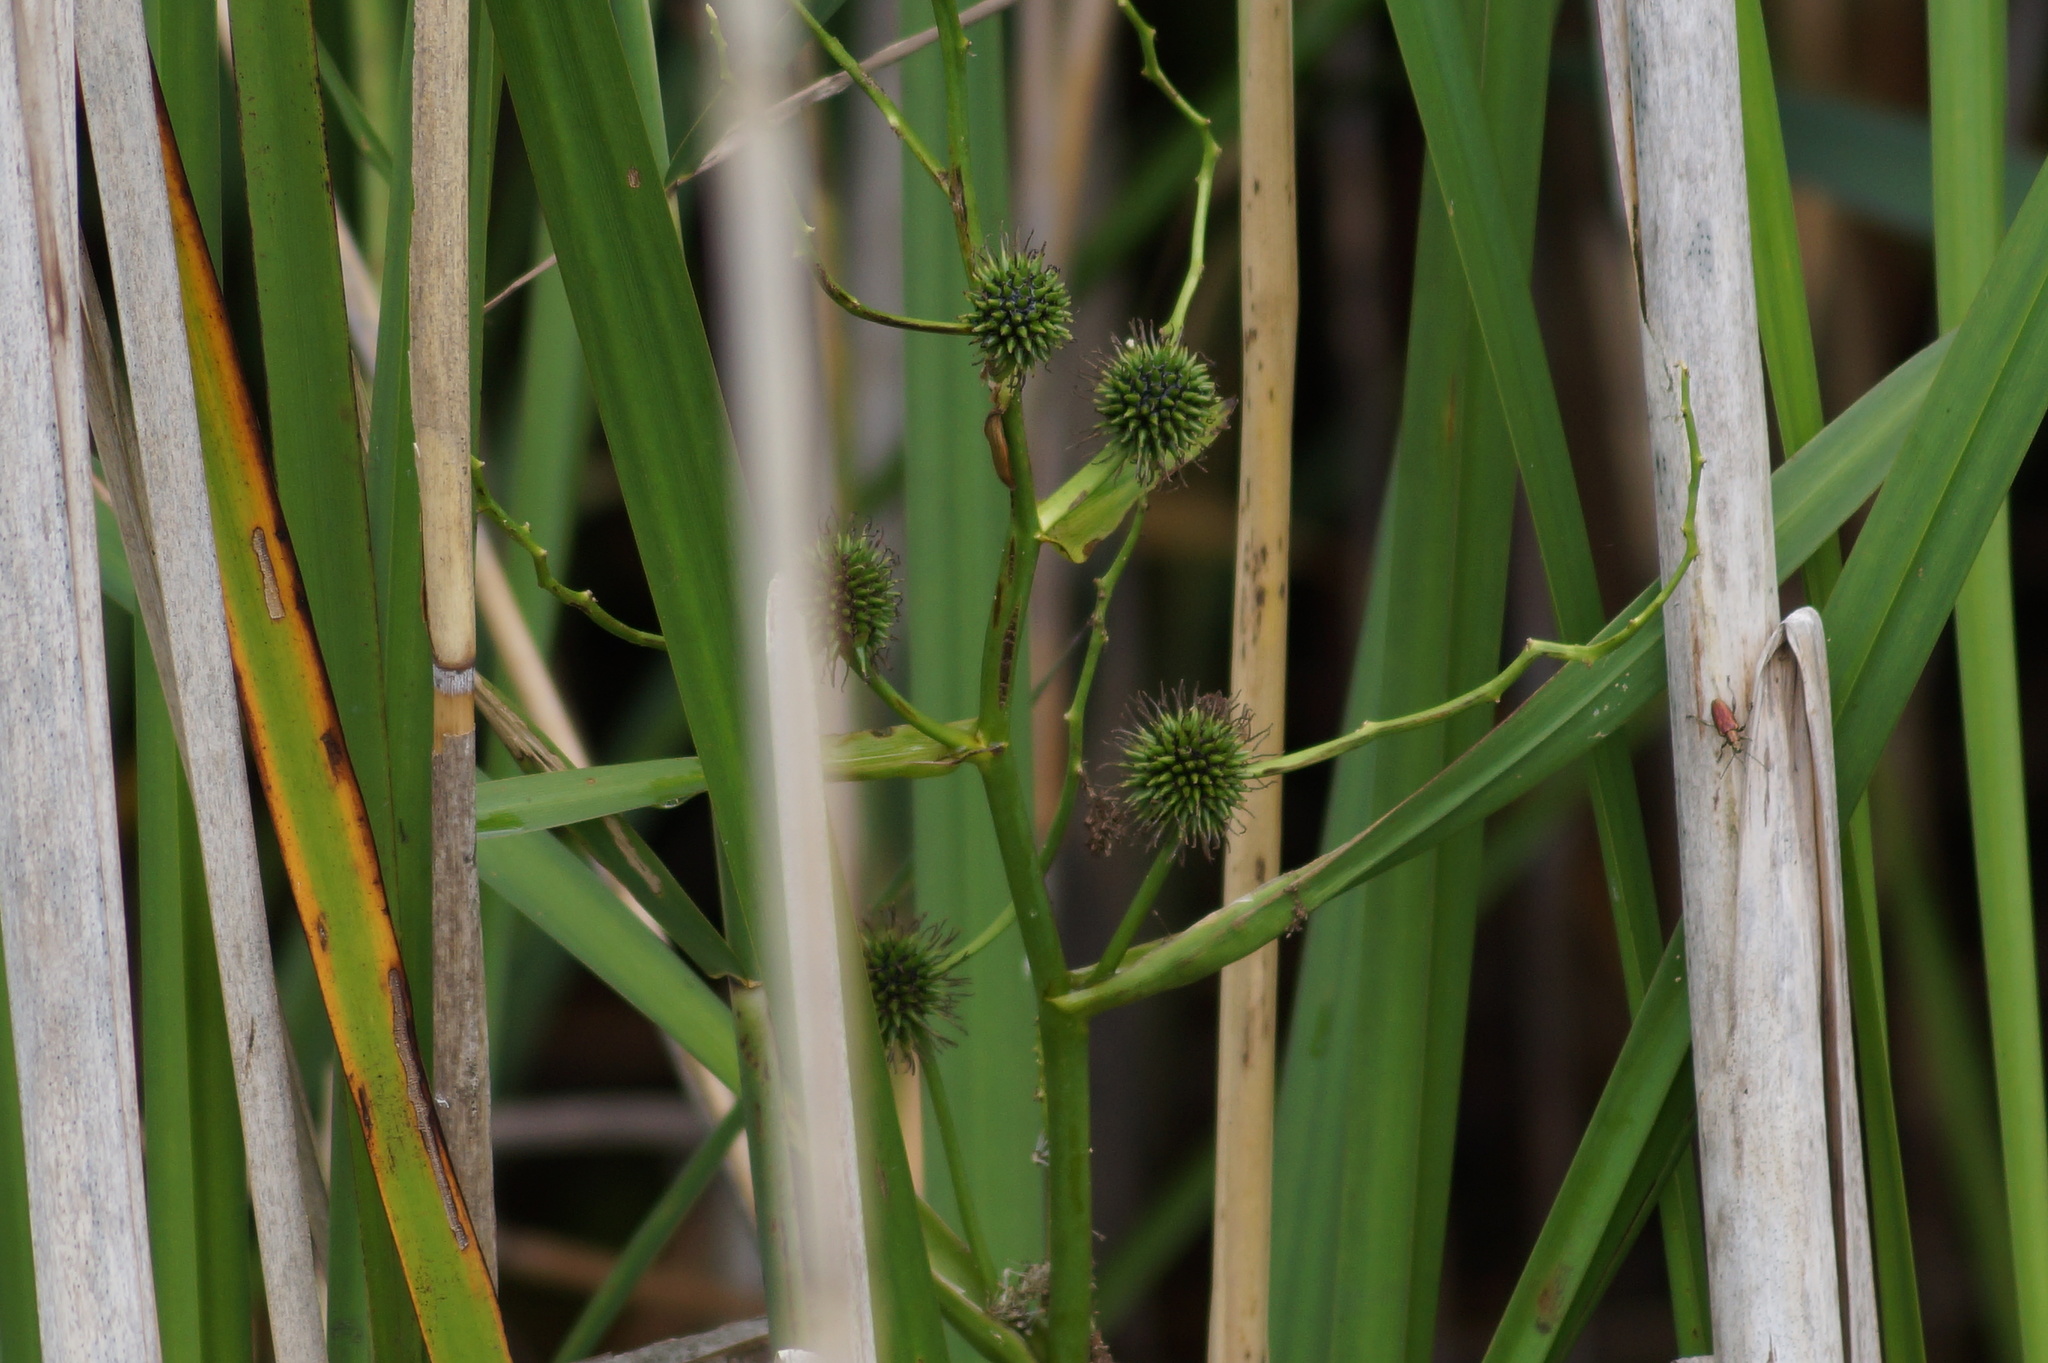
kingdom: Plantae
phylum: Tracheophyta
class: Liliopsida
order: Poales
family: Typhaceae
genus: Sparganium
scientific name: Sparganium erectum
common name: Branched bur-reed
